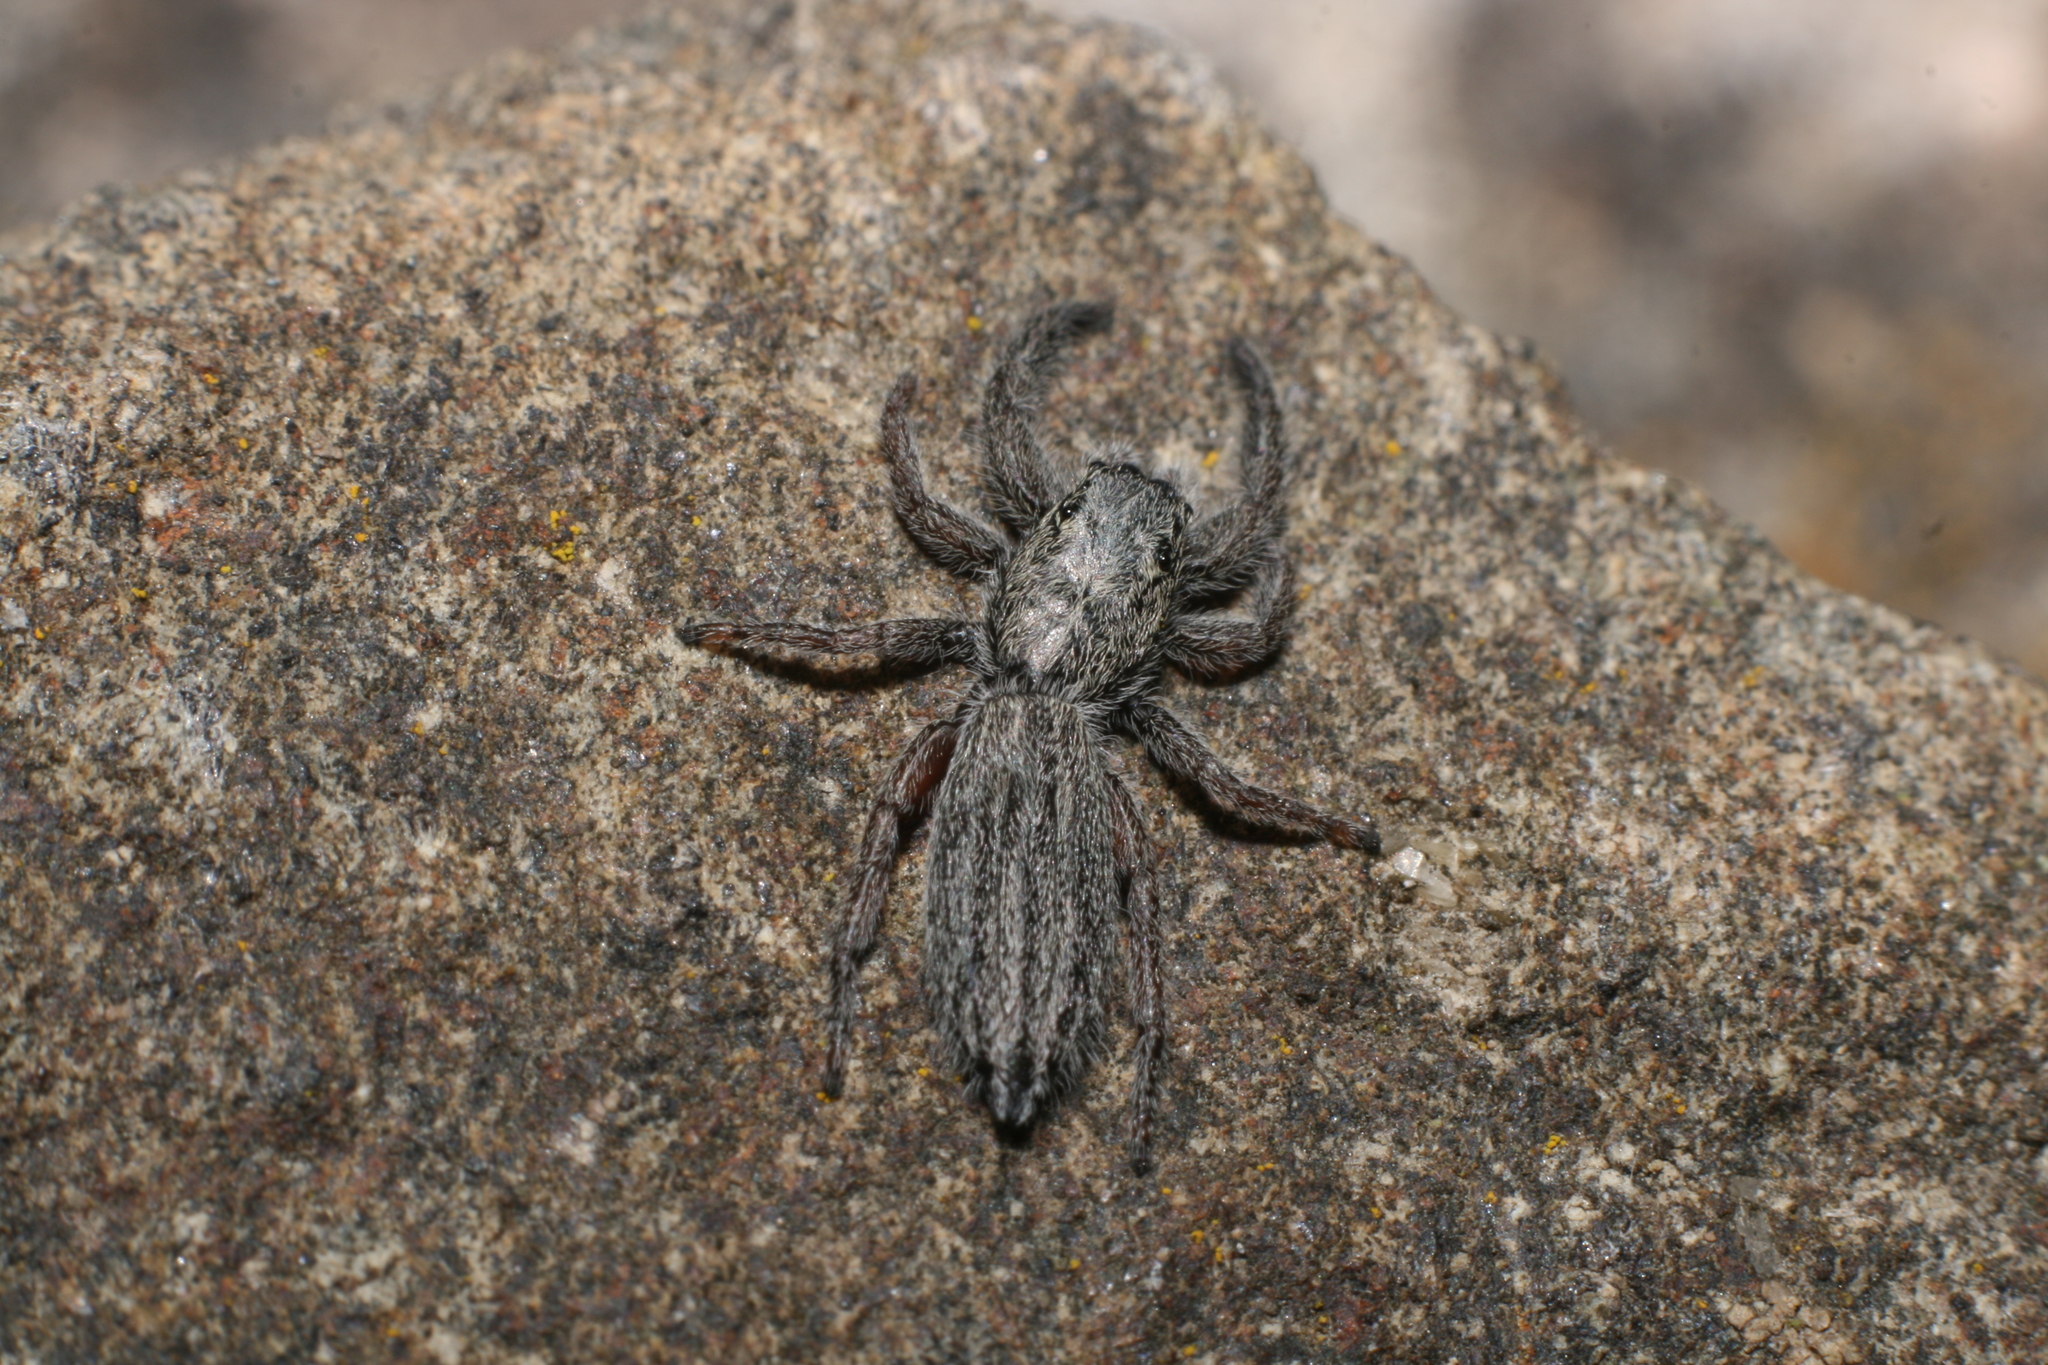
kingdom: Animalia
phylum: Arthropoda
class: Arachnida
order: Araneae
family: Salticidae
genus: Holoplatys
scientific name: Holoplatys apressus
